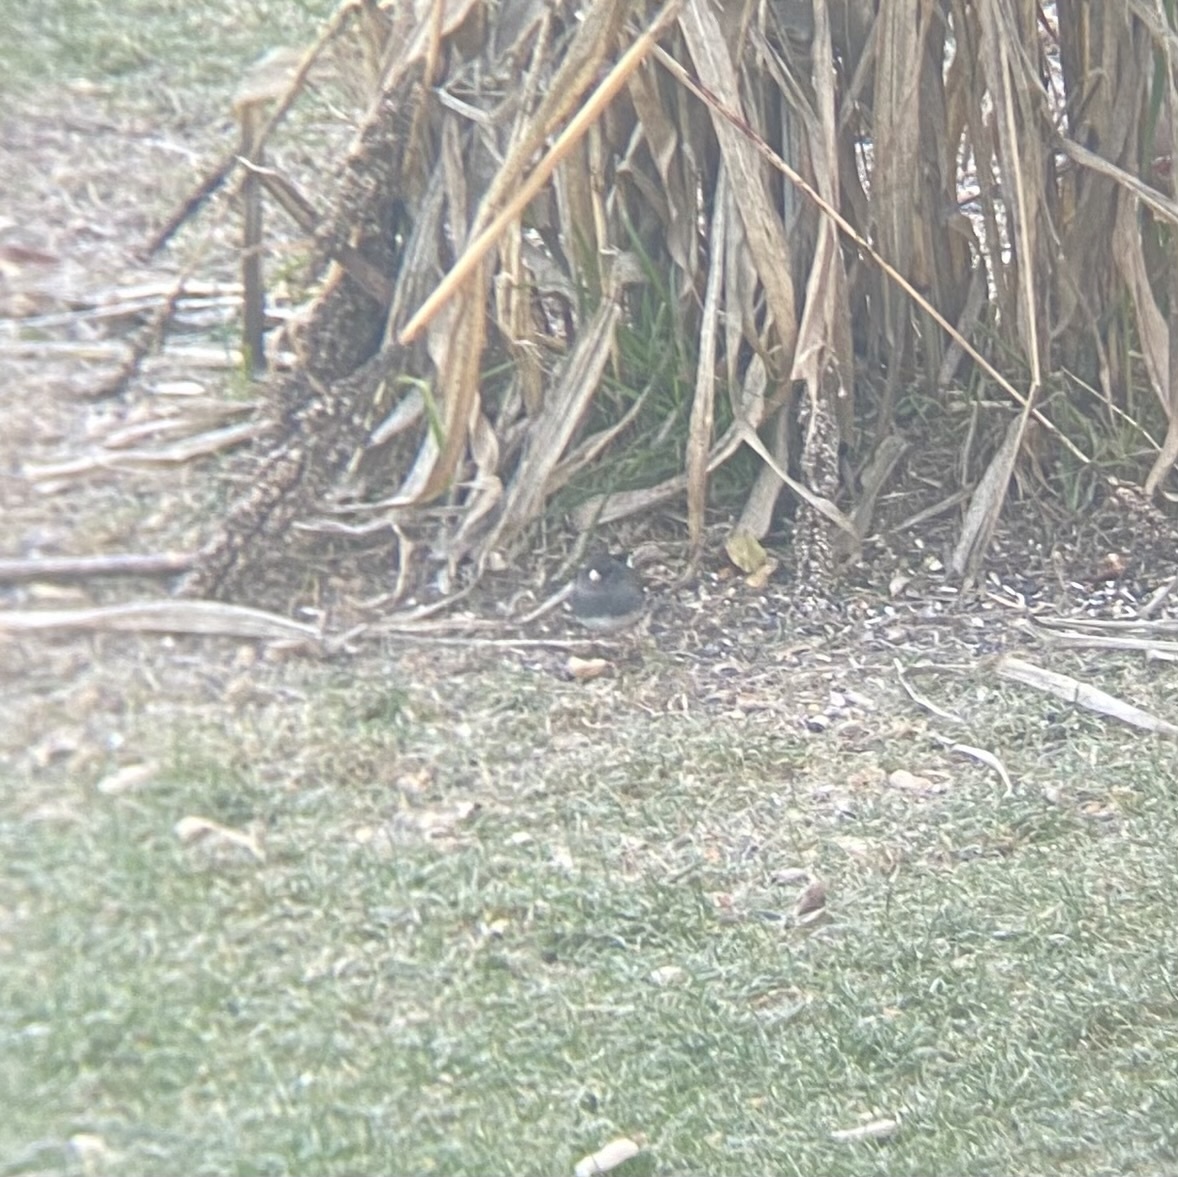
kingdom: Animalia
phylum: Chordata
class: Aves
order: Passeriformes
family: Passerellidae
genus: Junco
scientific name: Junco hyemalis
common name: Dark-eyed junco
